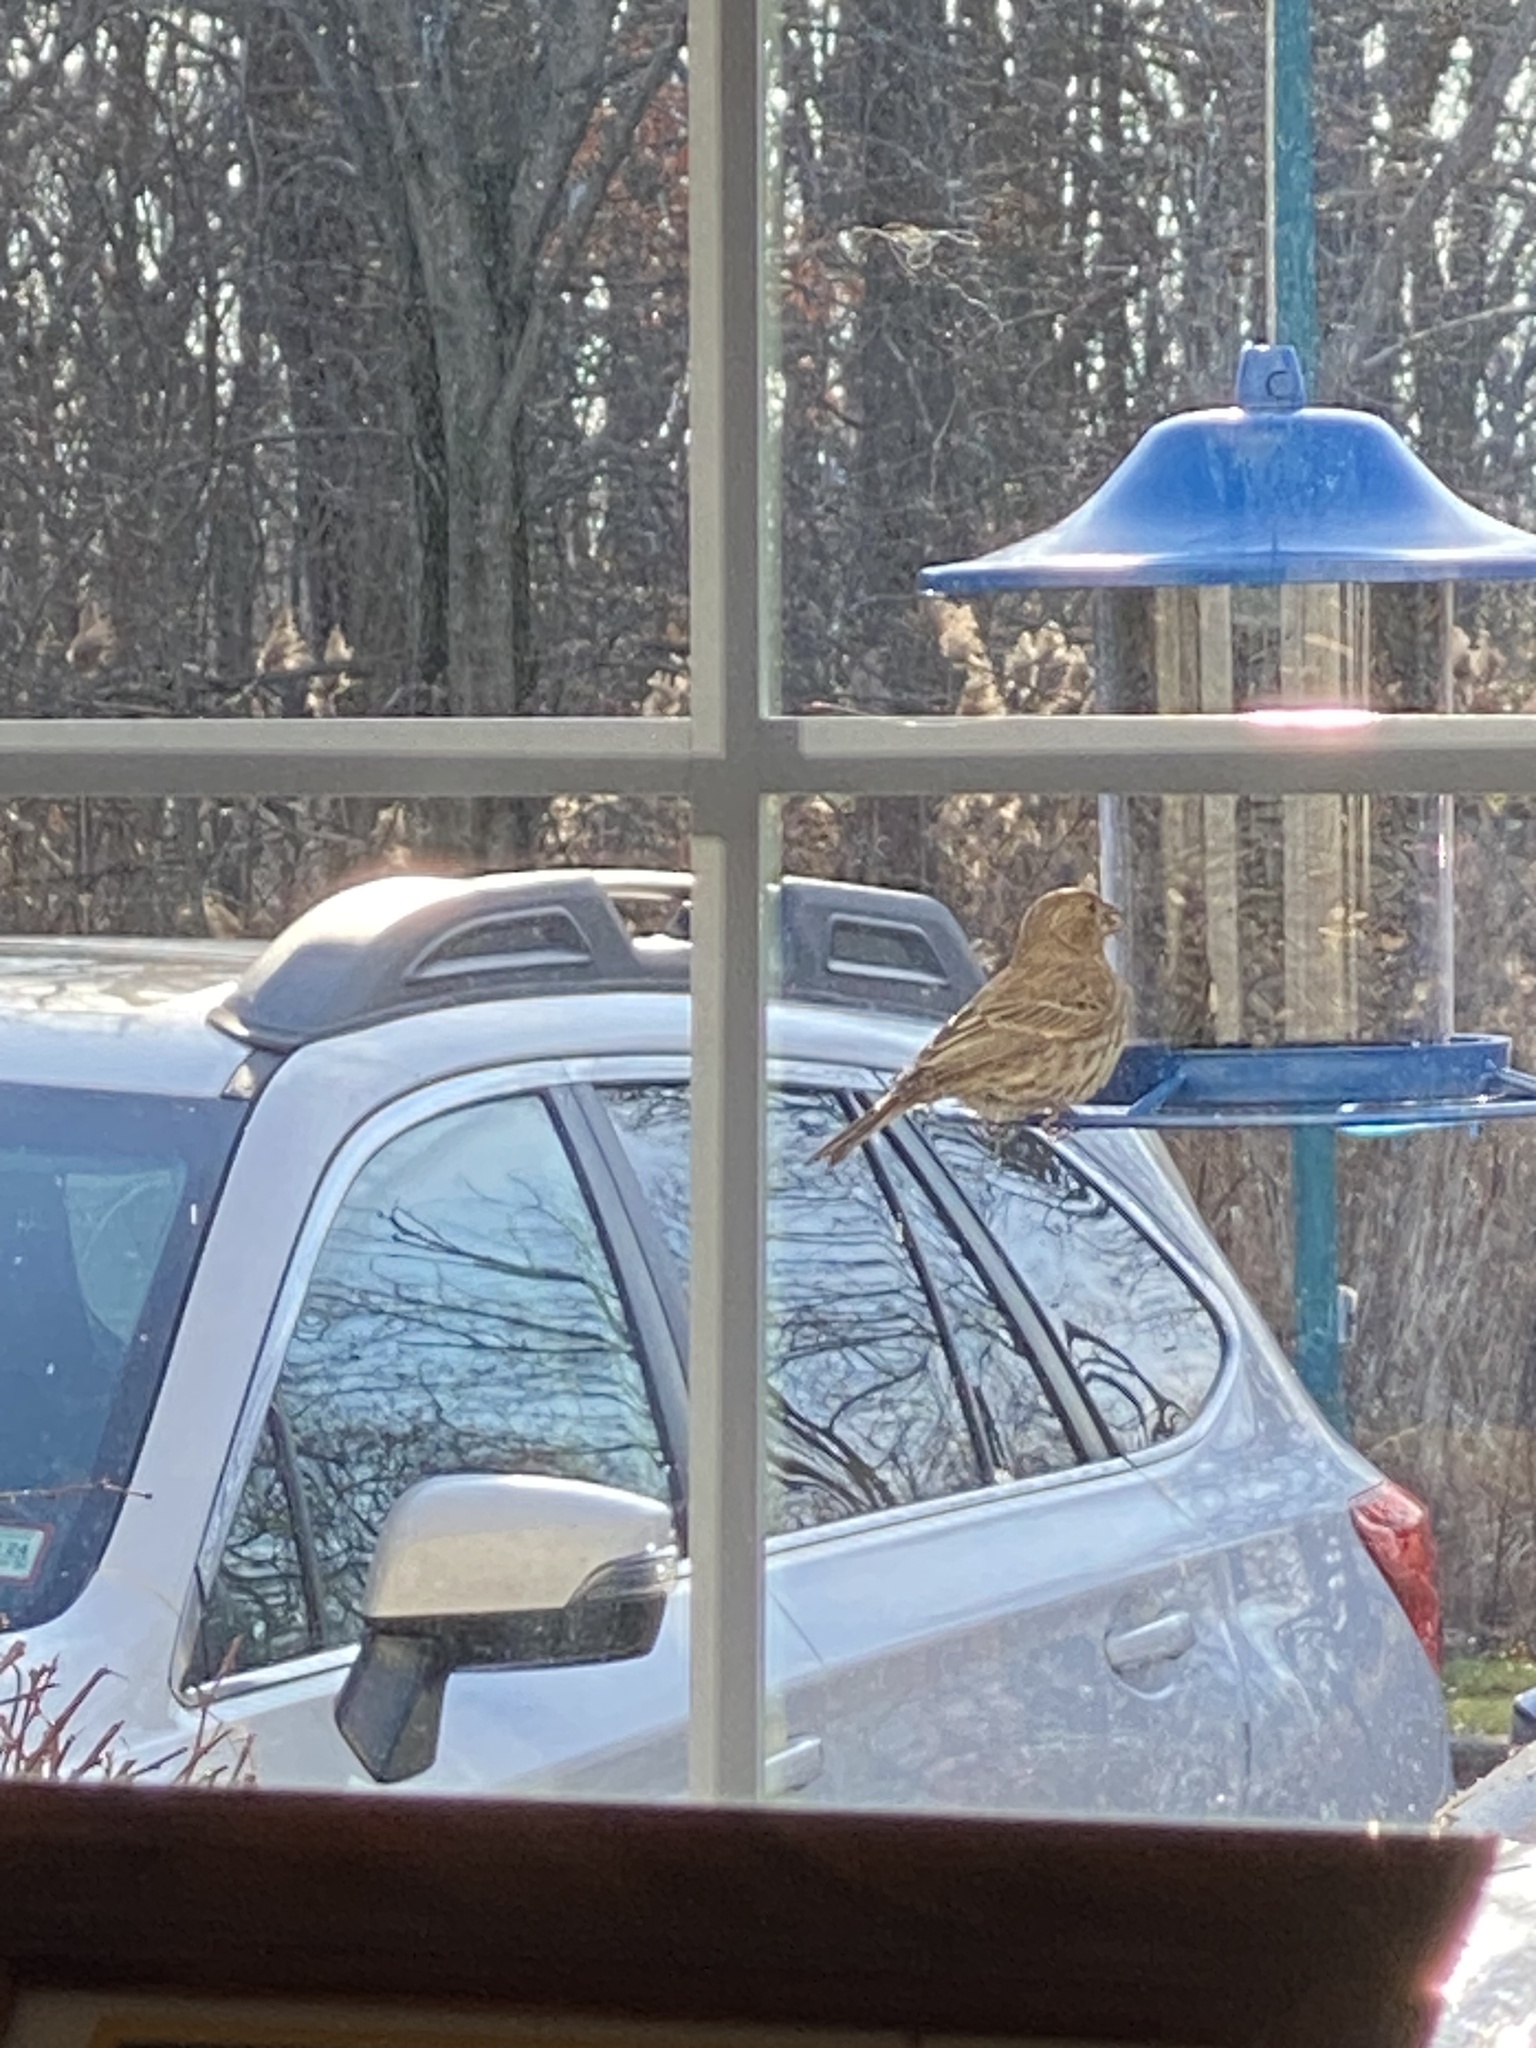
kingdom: Animalia
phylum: Chordata
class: Aves
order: Passeriformes
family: Fringillidae
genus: Haemorhous
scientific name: Haemorhous mexicanus
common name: House finch
